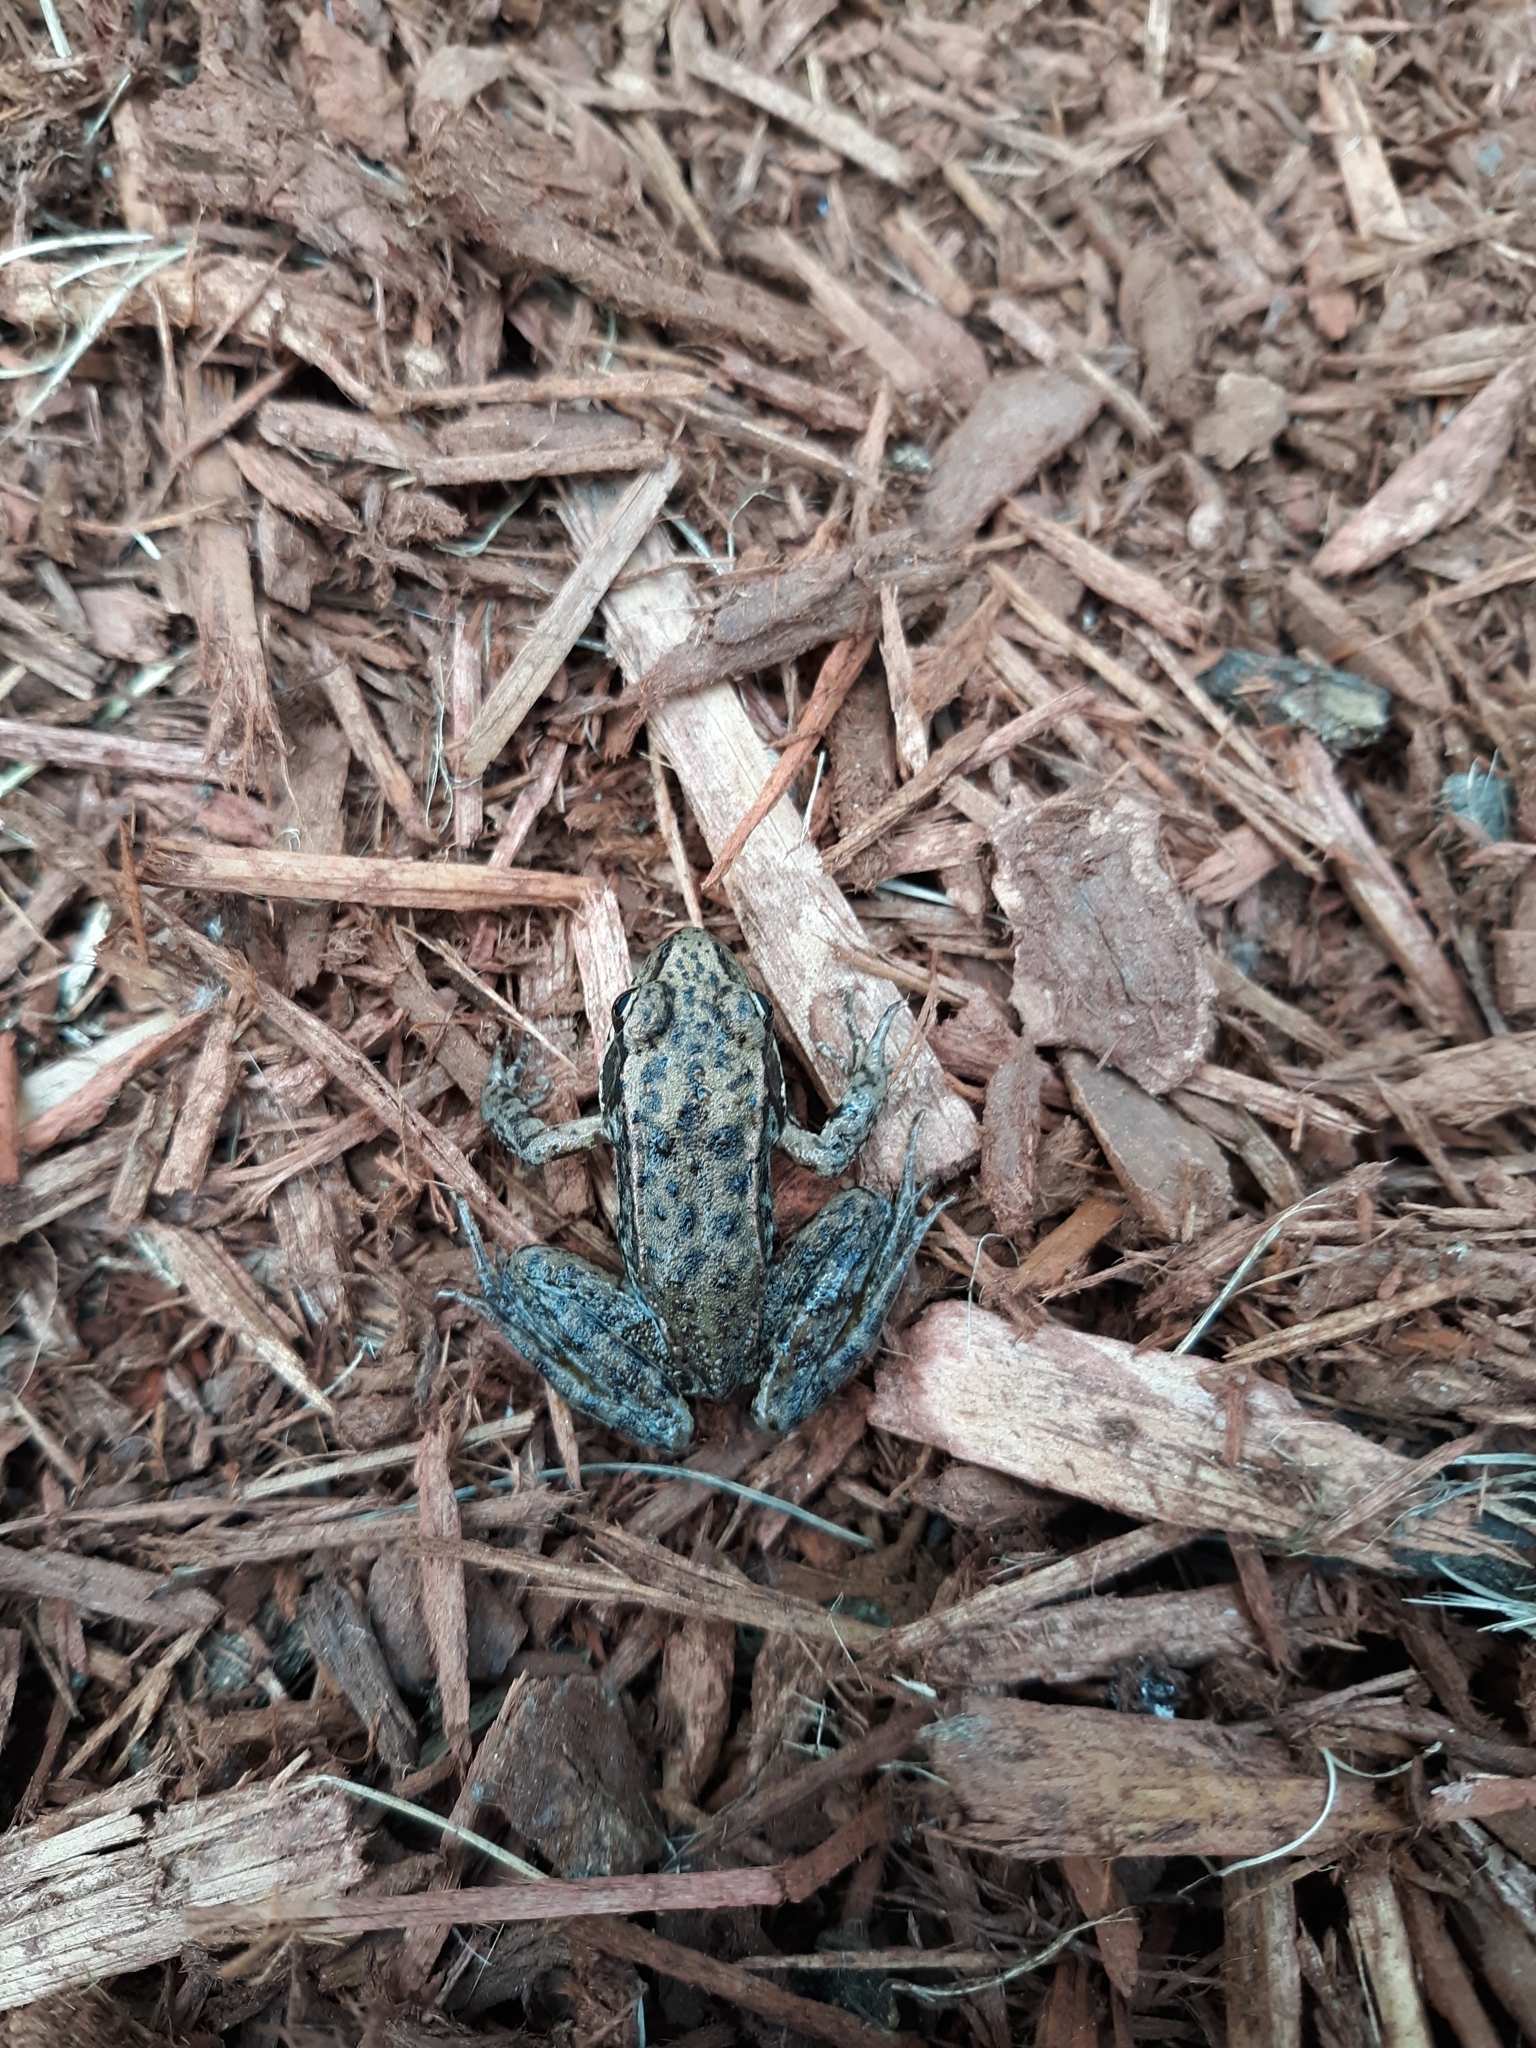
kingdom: Animalia
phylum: Chordata
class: Amphibia
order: Anura
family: Ranidae
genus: Rana
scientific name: Rana aurora
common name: Red-legged frog
